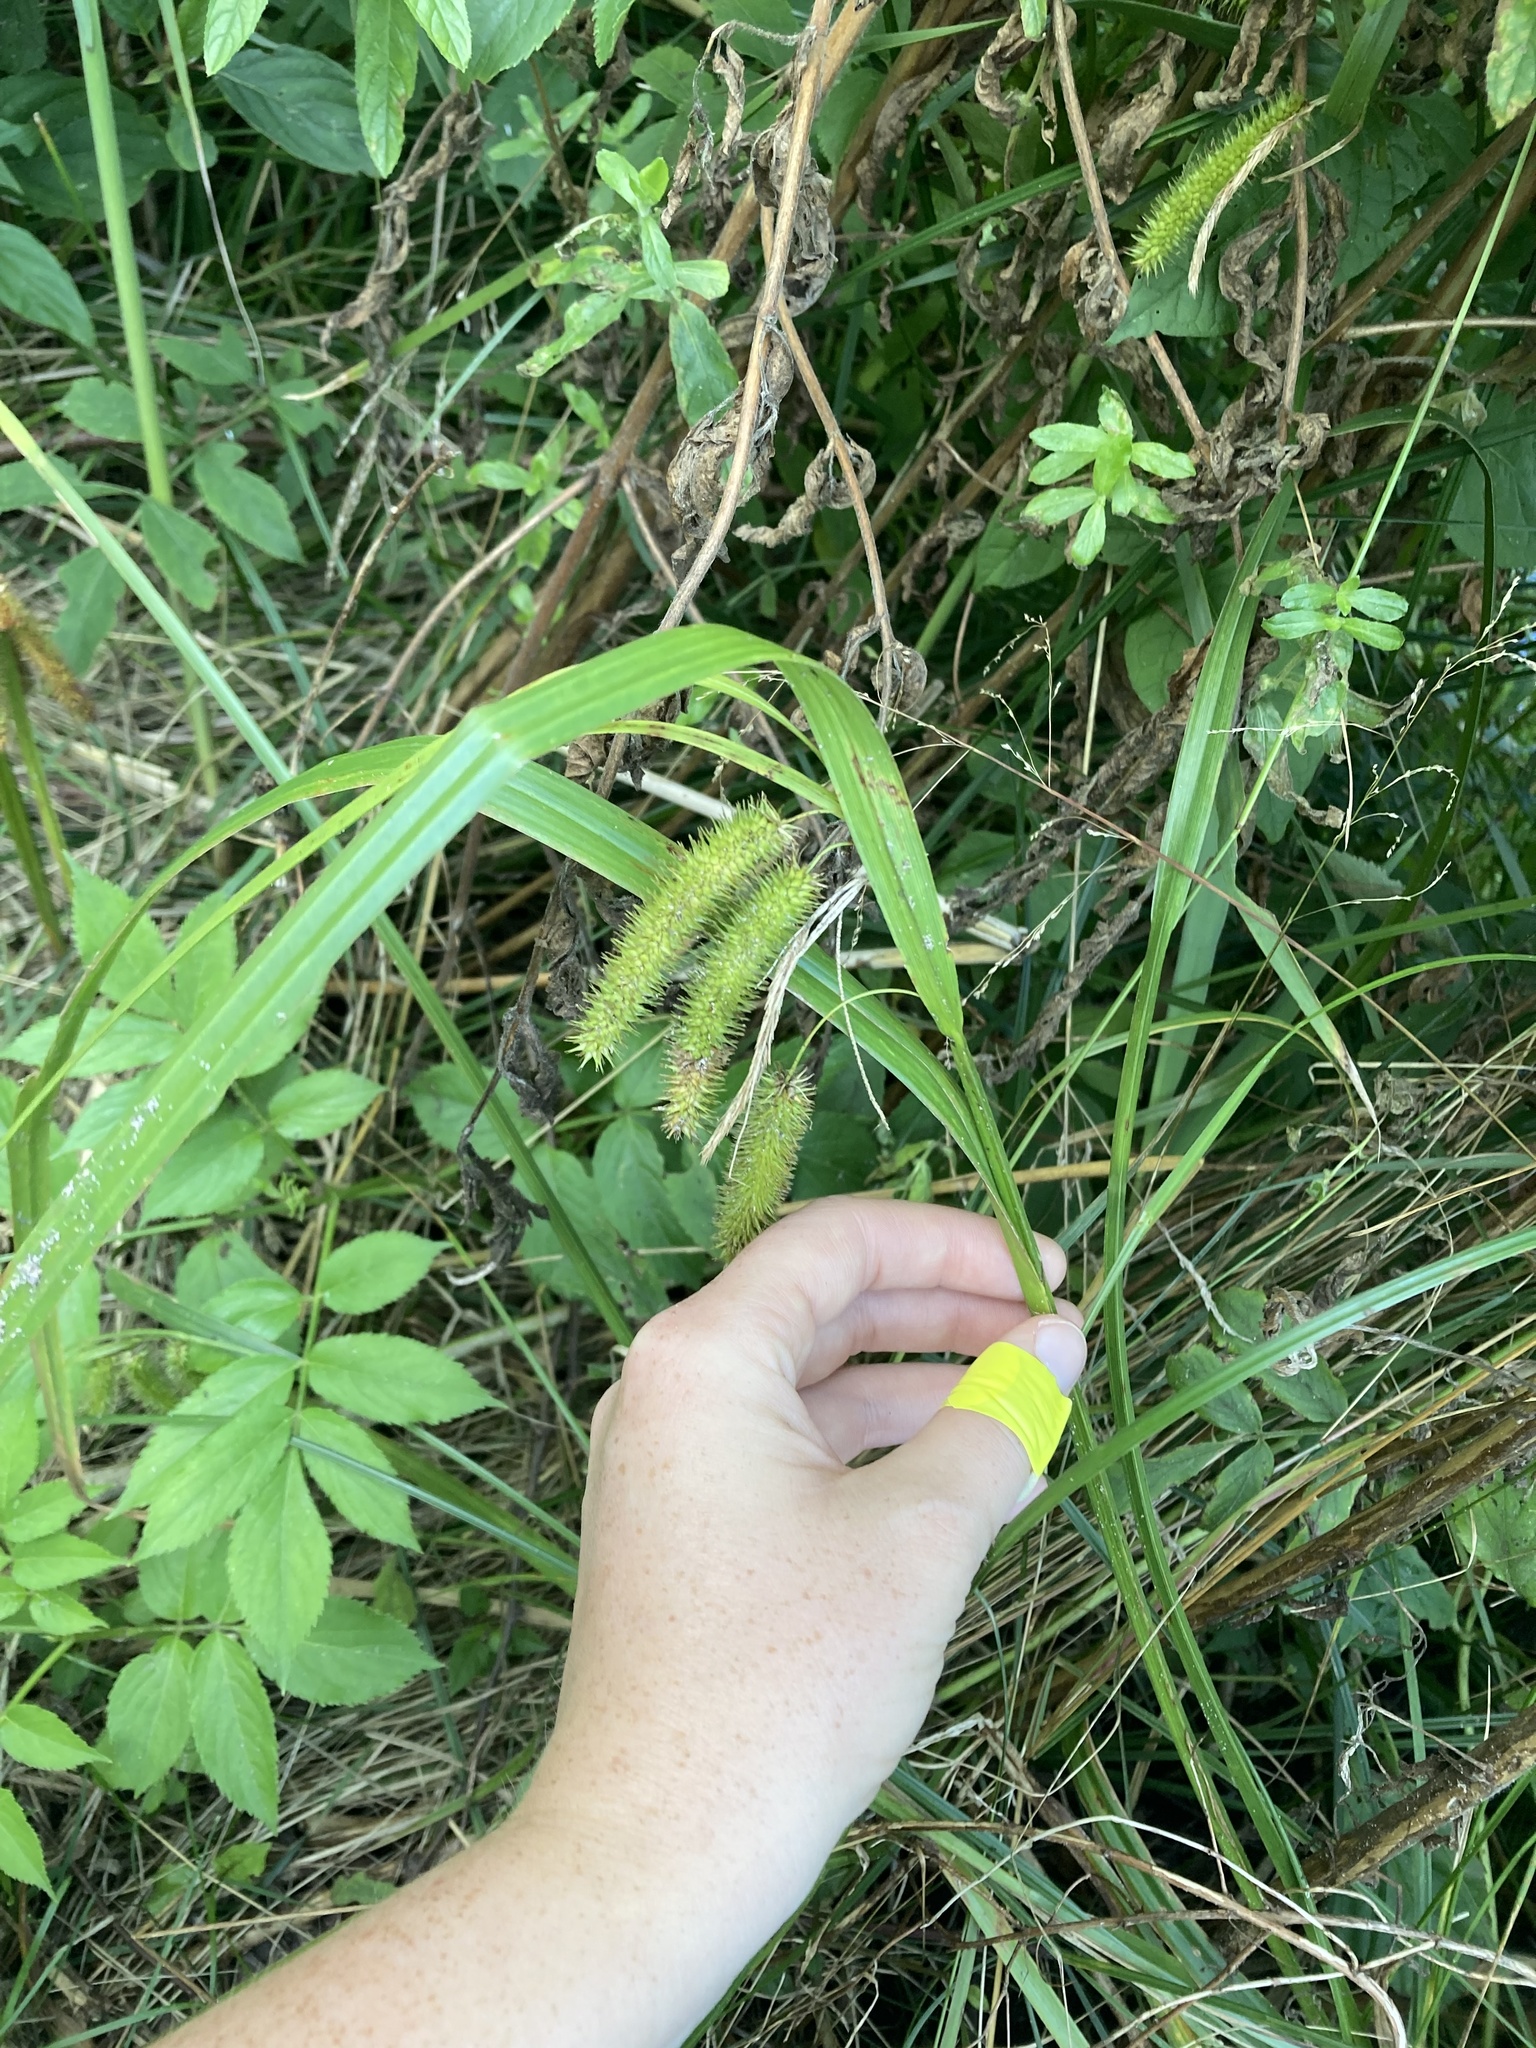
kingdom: Plantae
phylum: Tracheophyta
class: Liliopsida
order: Poales
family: Cyperaceae
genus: Carex
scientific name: Carex pseudocyperus
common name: Cyperus sedge
